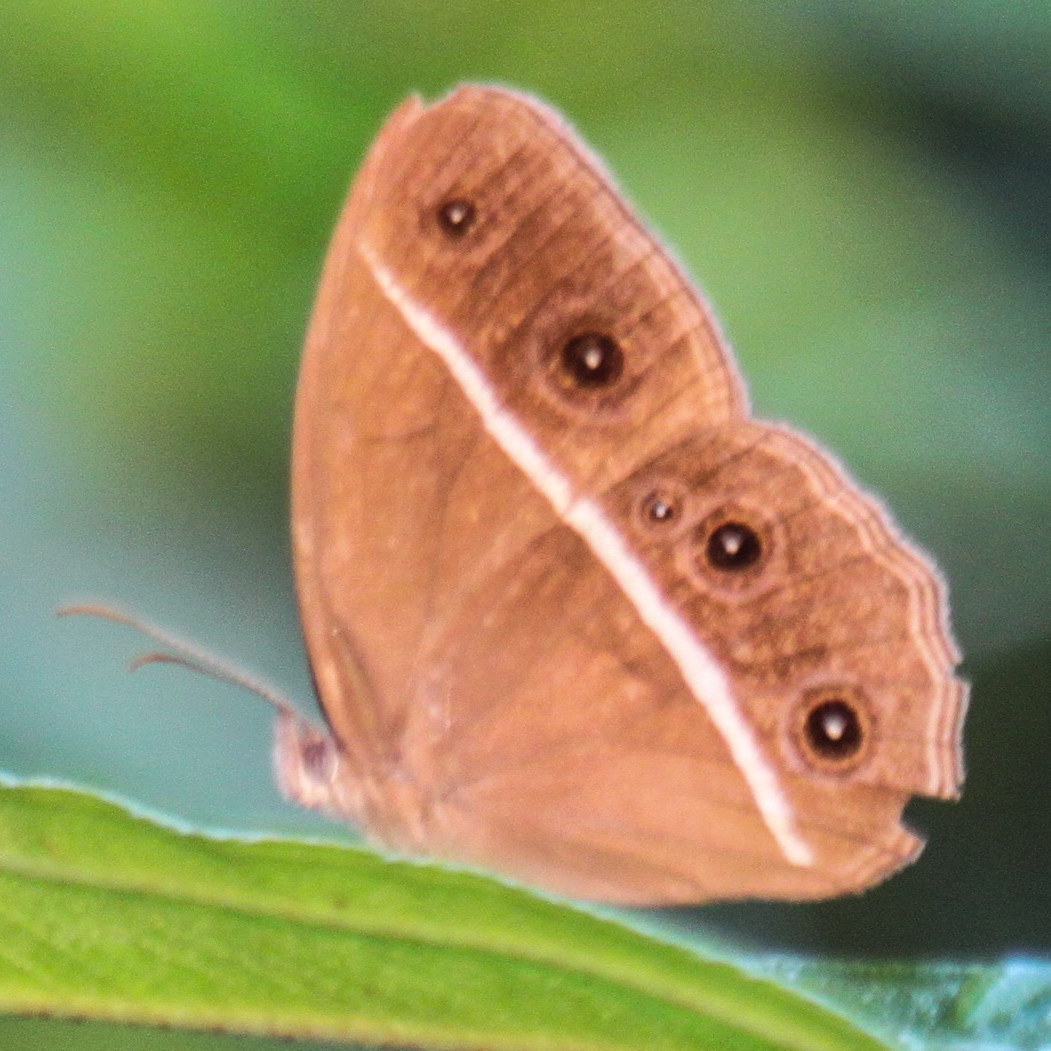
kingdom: Animalia
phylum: Arthropoda
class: Insecta
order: Lepidoptera
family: Nymphalidae
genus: Orsotriaena
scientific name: Orsotriaena medus
